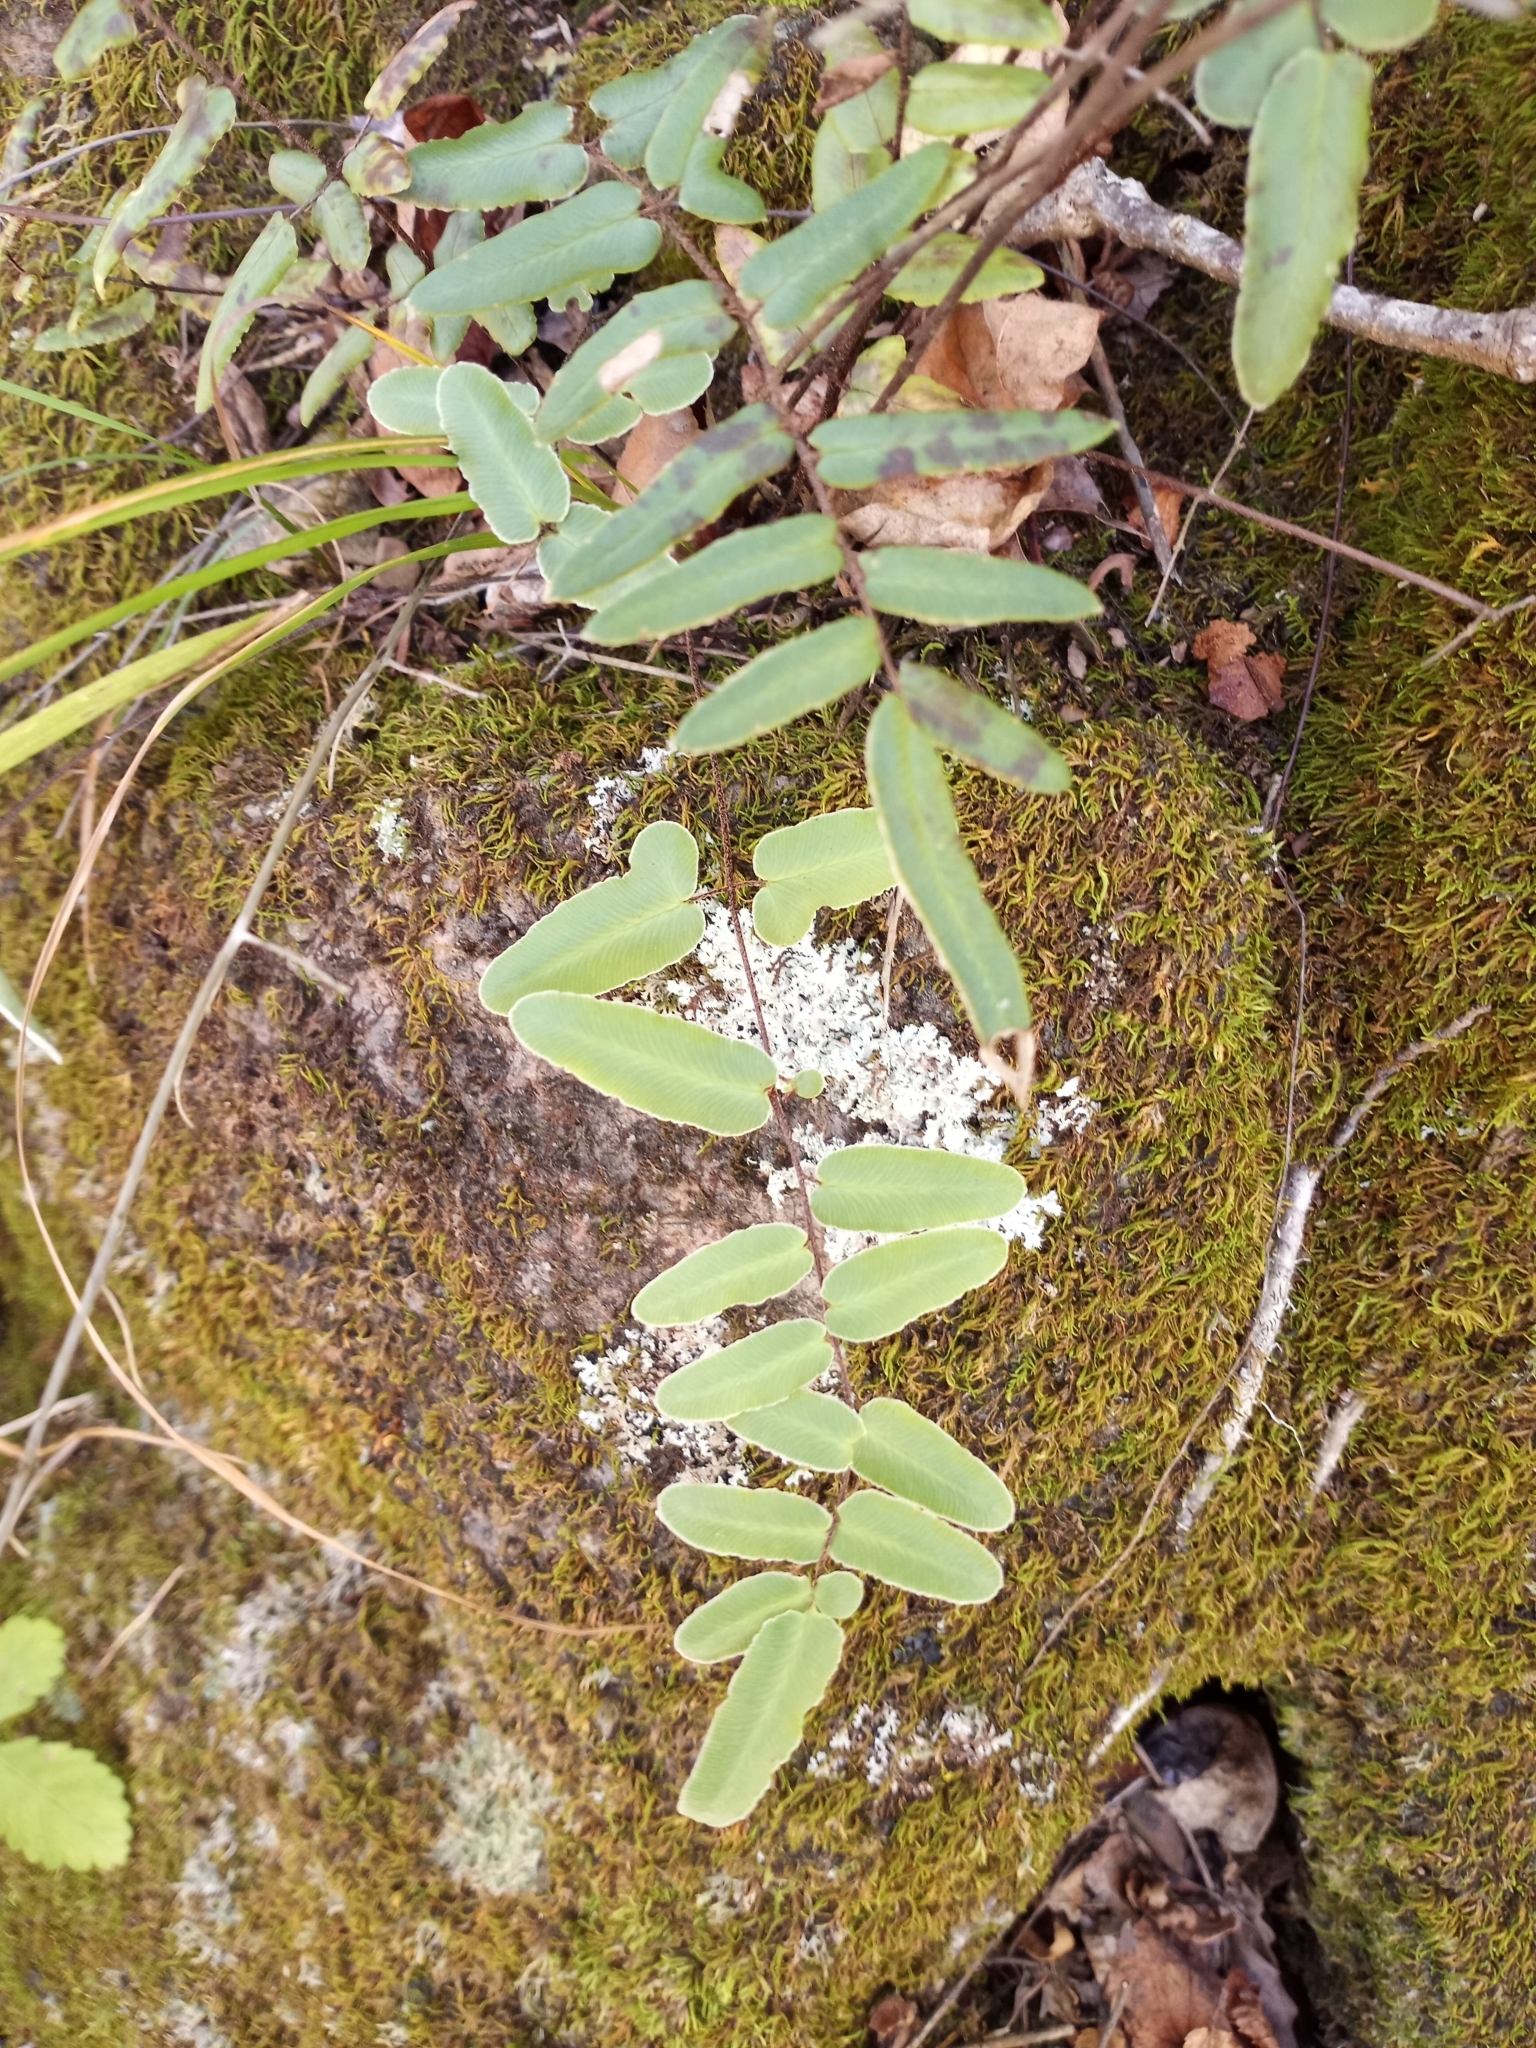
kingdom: Plantae
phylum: Tracheophyta
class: Polypodiopsida
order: Polypodiales
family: Pteridaceae
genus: Pellaea
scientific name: Pellaea atropurpurea
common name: Hairy cliffbrake
